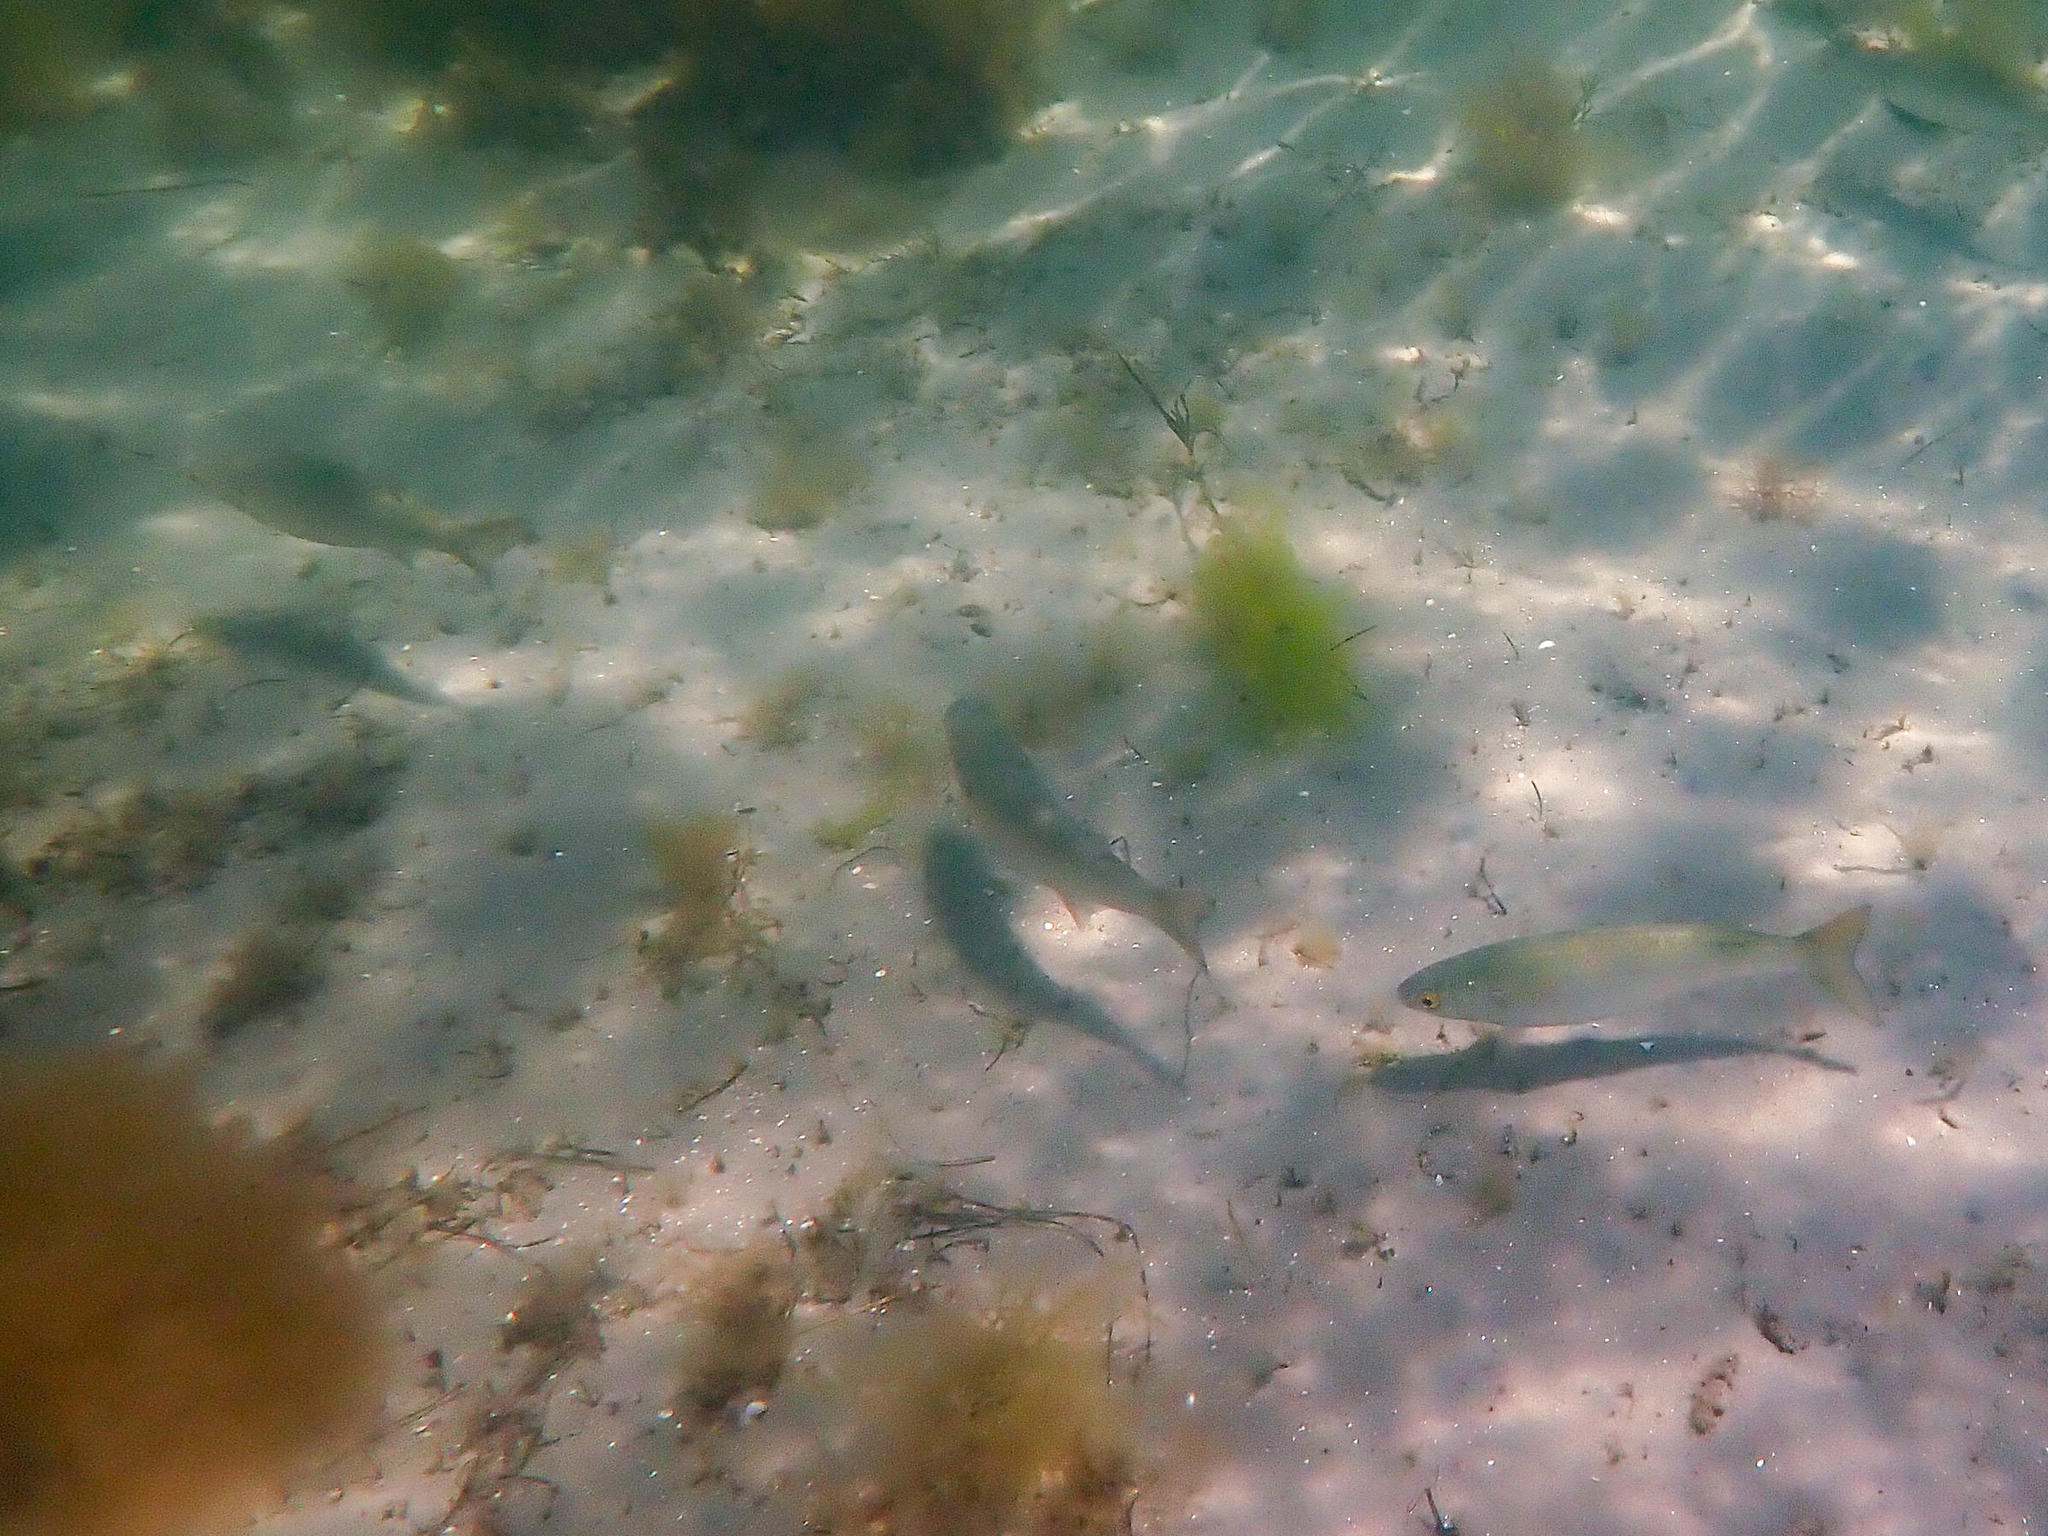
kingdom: Animalia
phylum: Chordata
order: Mugiliformes
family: Mugilidae
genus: Aldrichetta
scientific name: Aldrichetta forsteri
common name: Yellow-eye mullet
